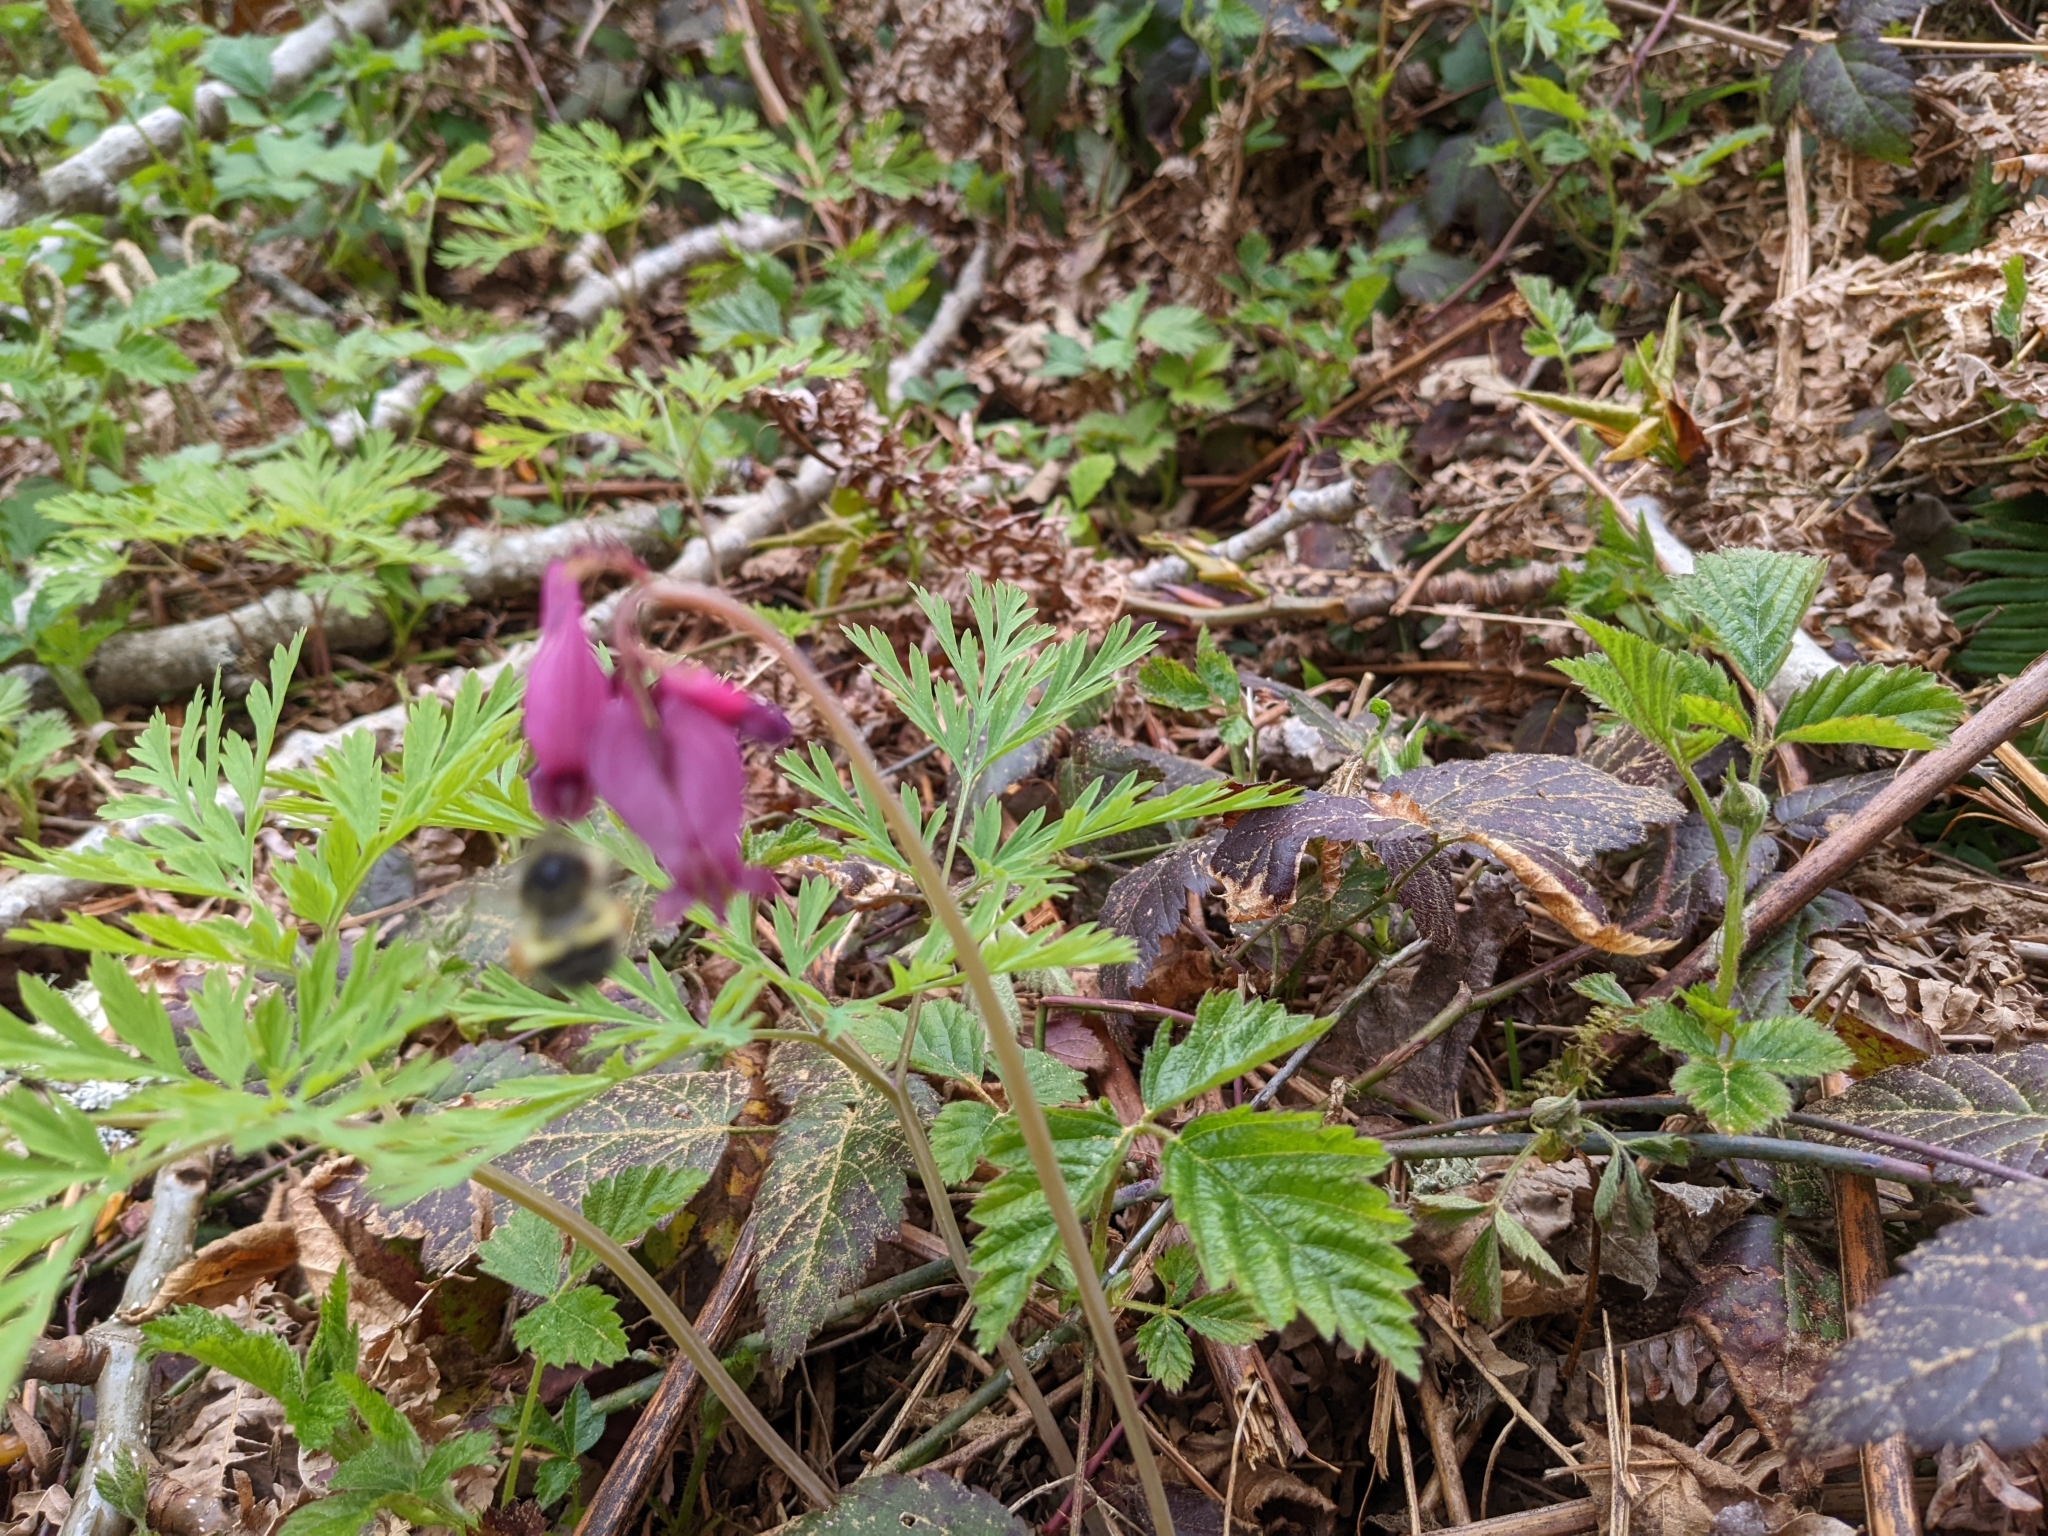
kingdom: Plantae
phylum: Tracheophyta
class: Magnoliopsida
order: Ranunculales
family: Papaveraceae
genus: Dicentra
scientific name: Dicentra formosa
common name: Bleeding-heart
